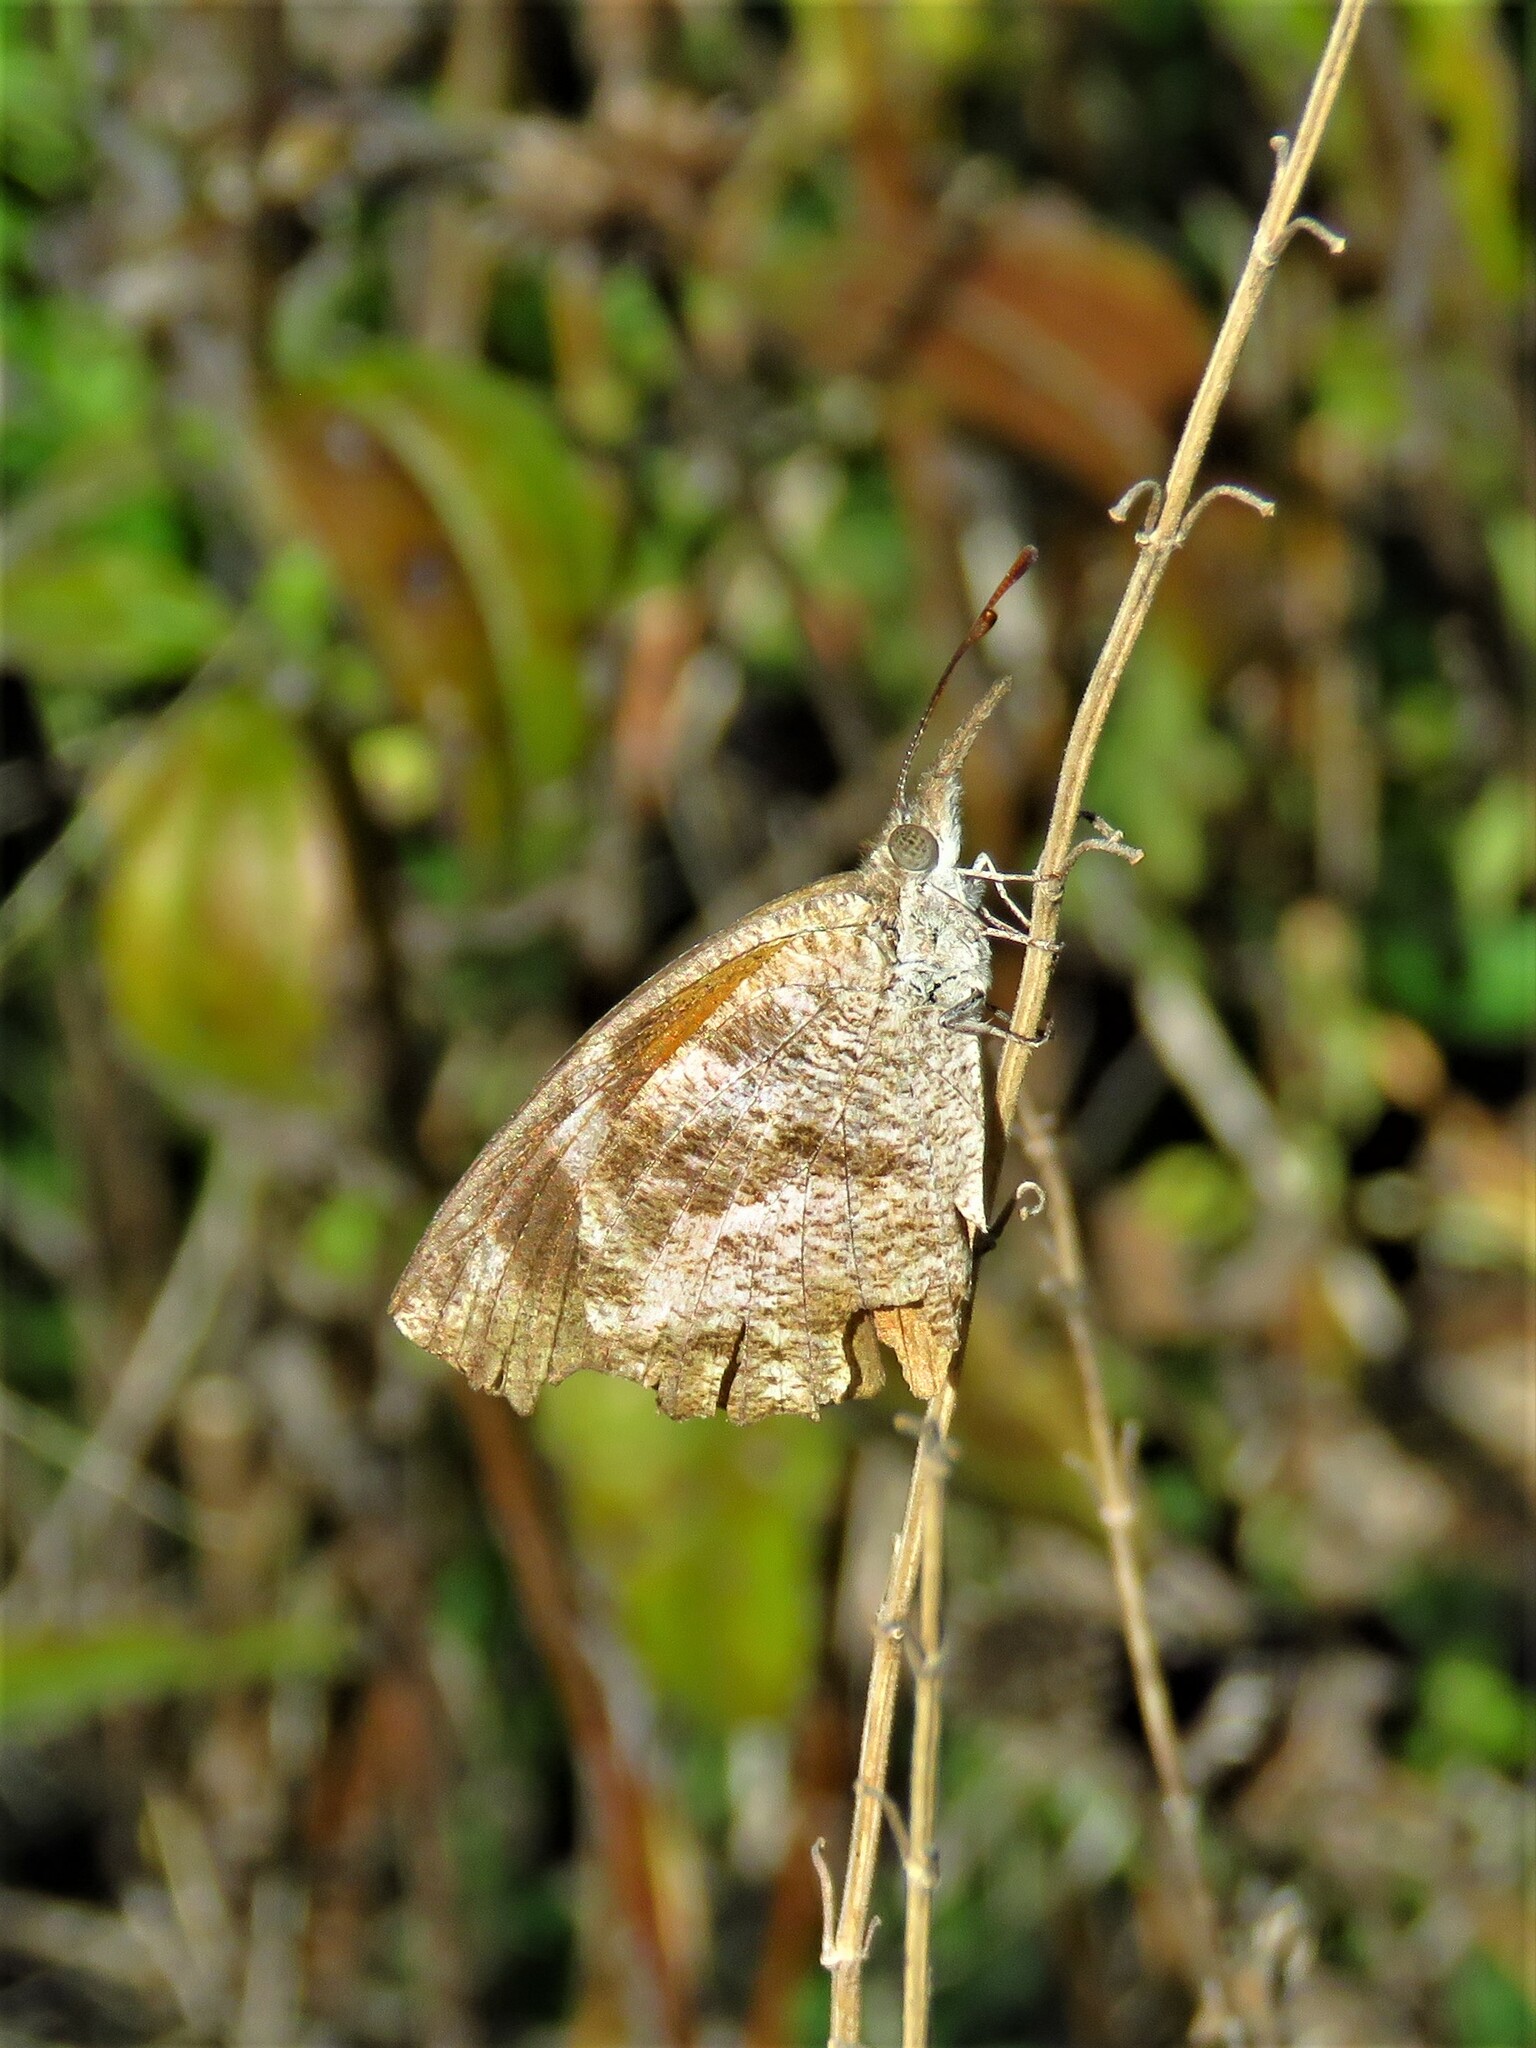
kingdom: Animalia
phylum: Arthropoda
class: Insecta
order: Lepidoptera
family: Nymphalidae
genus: Libytheana
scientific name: Libytheana carinenta
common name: American snout
